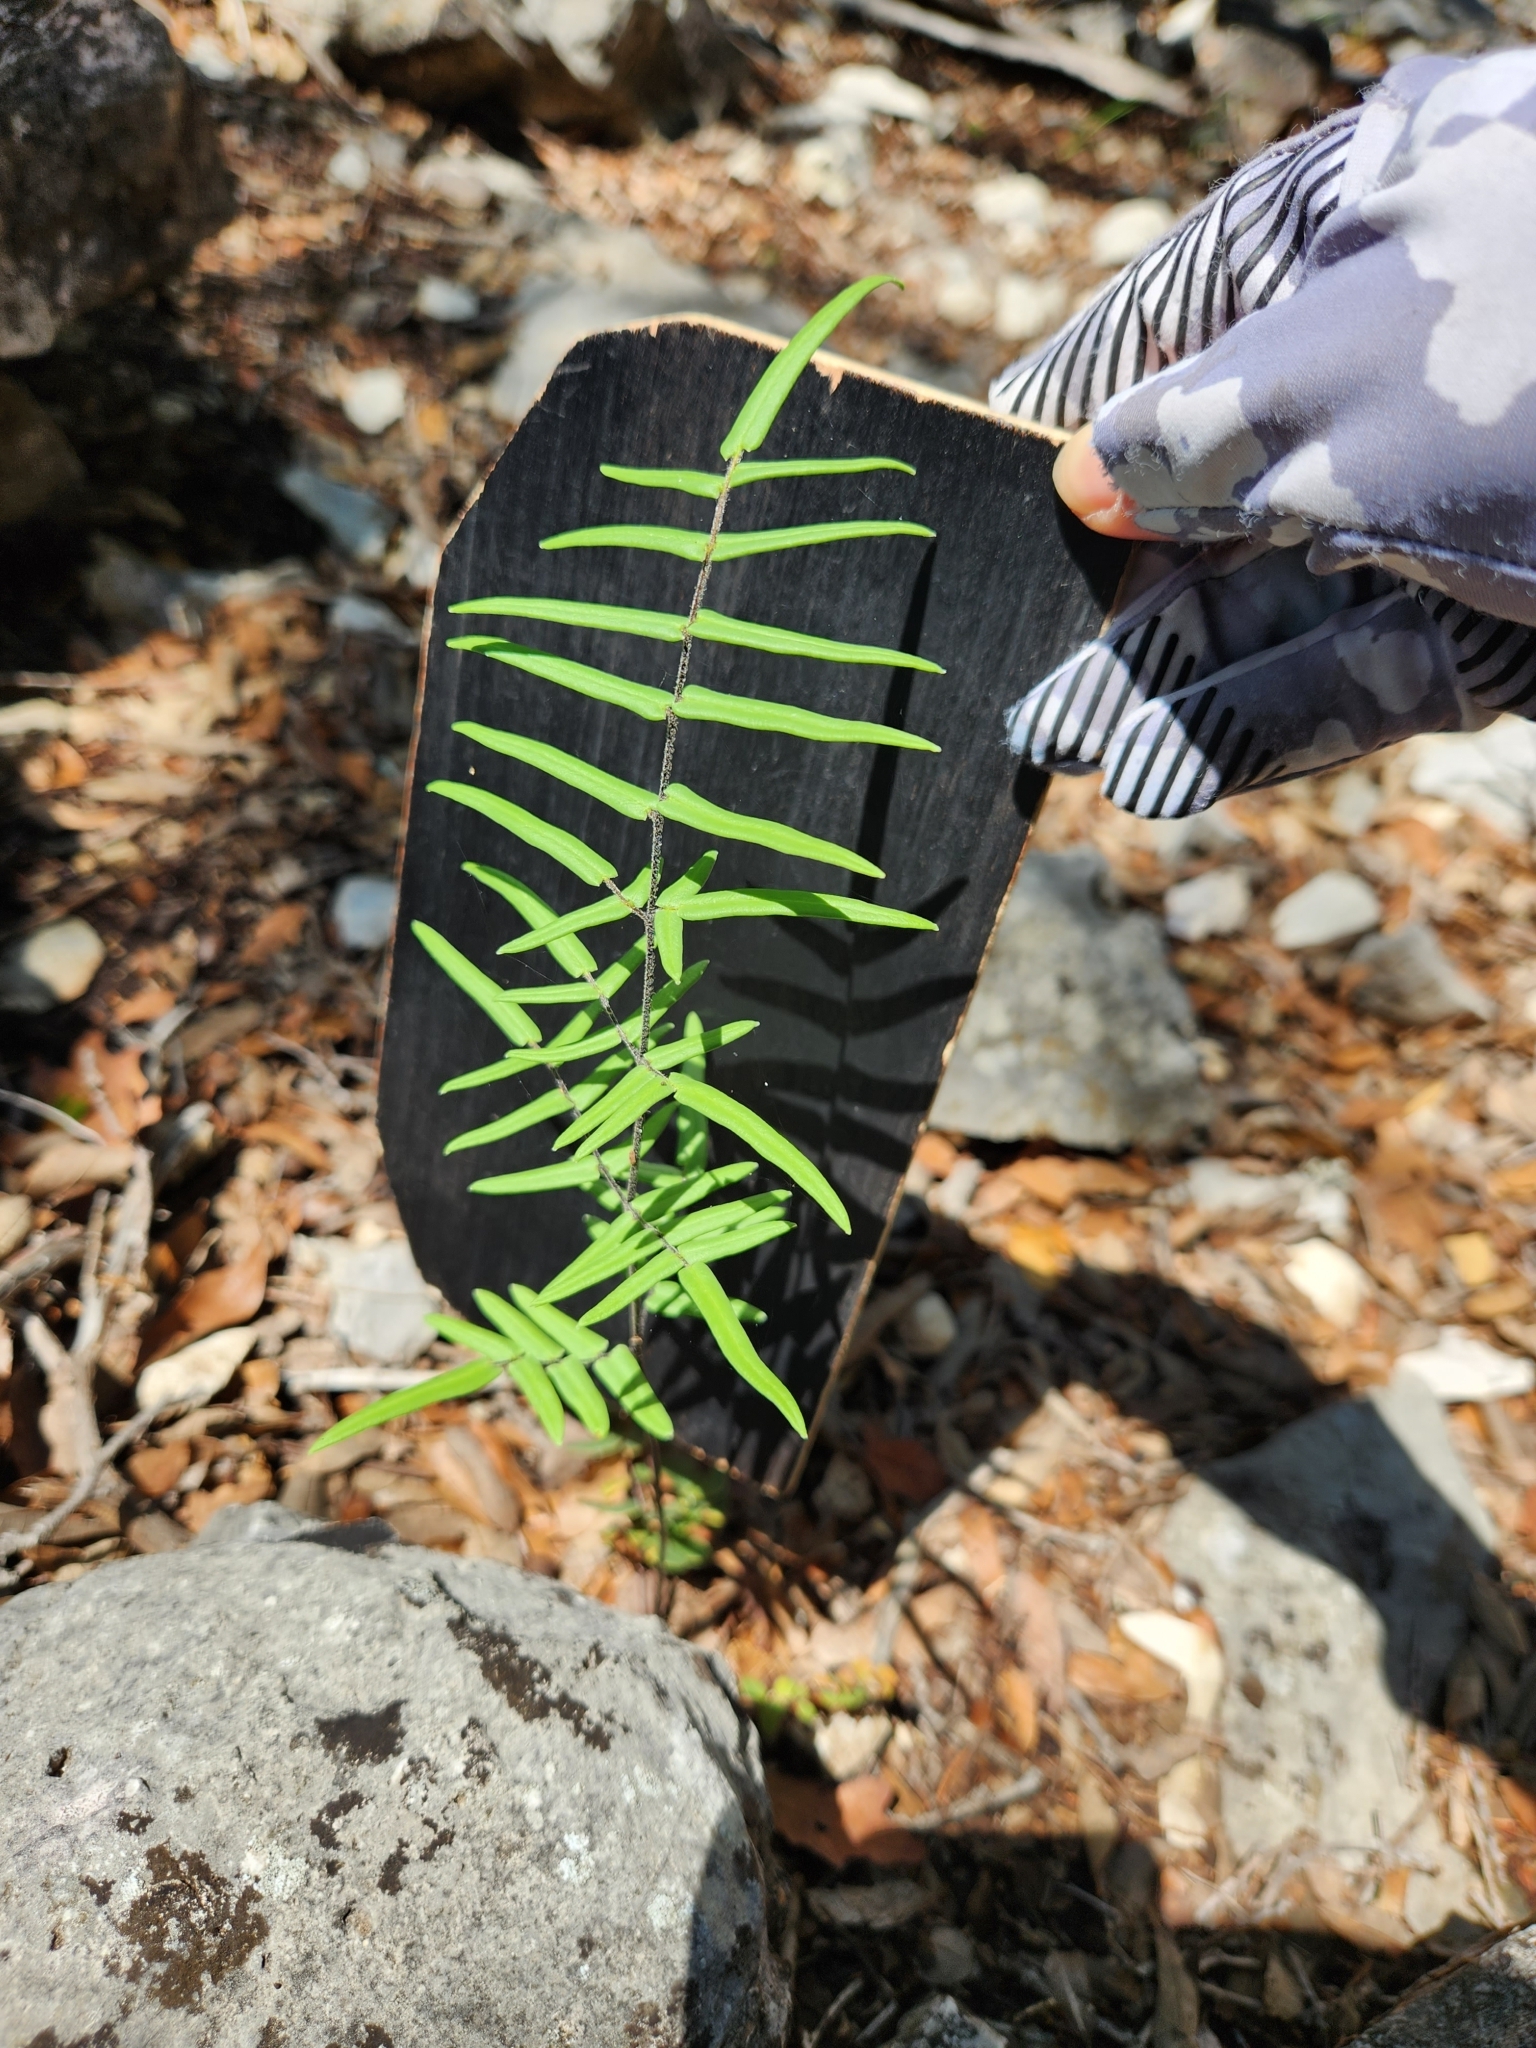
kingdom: Plantae
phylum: Tracheophyta
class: Polypodiopsida
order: Polypodiales
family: Pteridaceae
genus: Pellaea
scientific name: Pellaea atropurpurea
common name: Hairy cliffbrake
